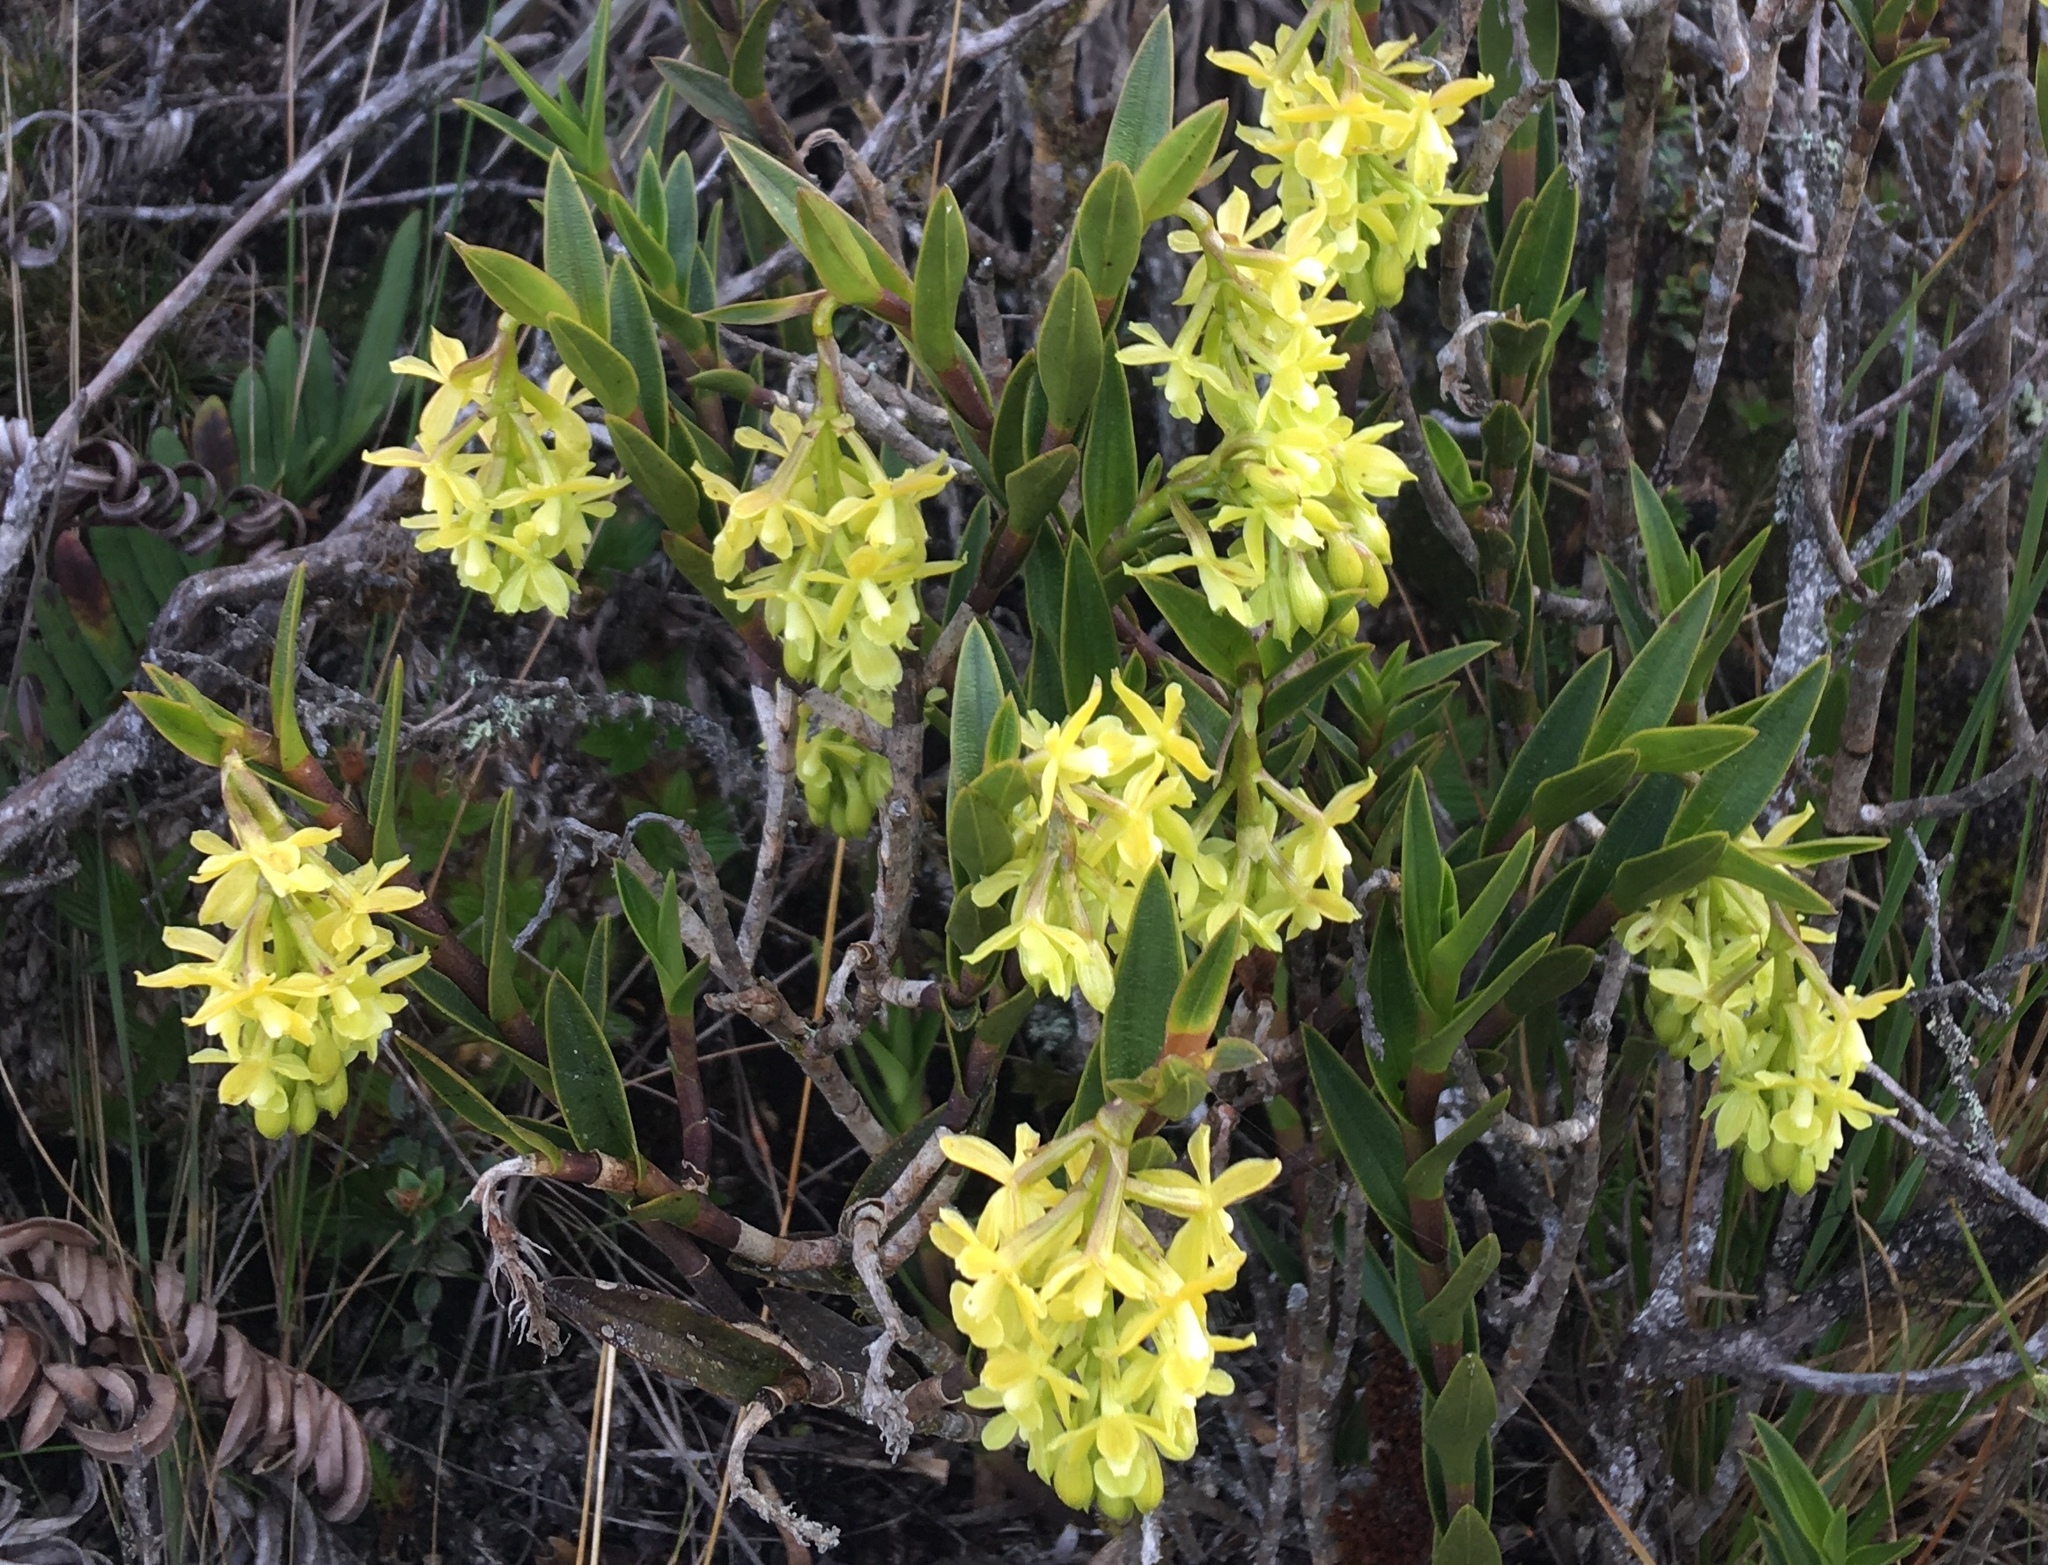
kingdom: Plantae
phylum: Tracheophyta
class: Liliopsida
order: Asparagales
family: Orchidaceae
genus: Epidendrum
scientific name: Epidendrum zipaquiranum
